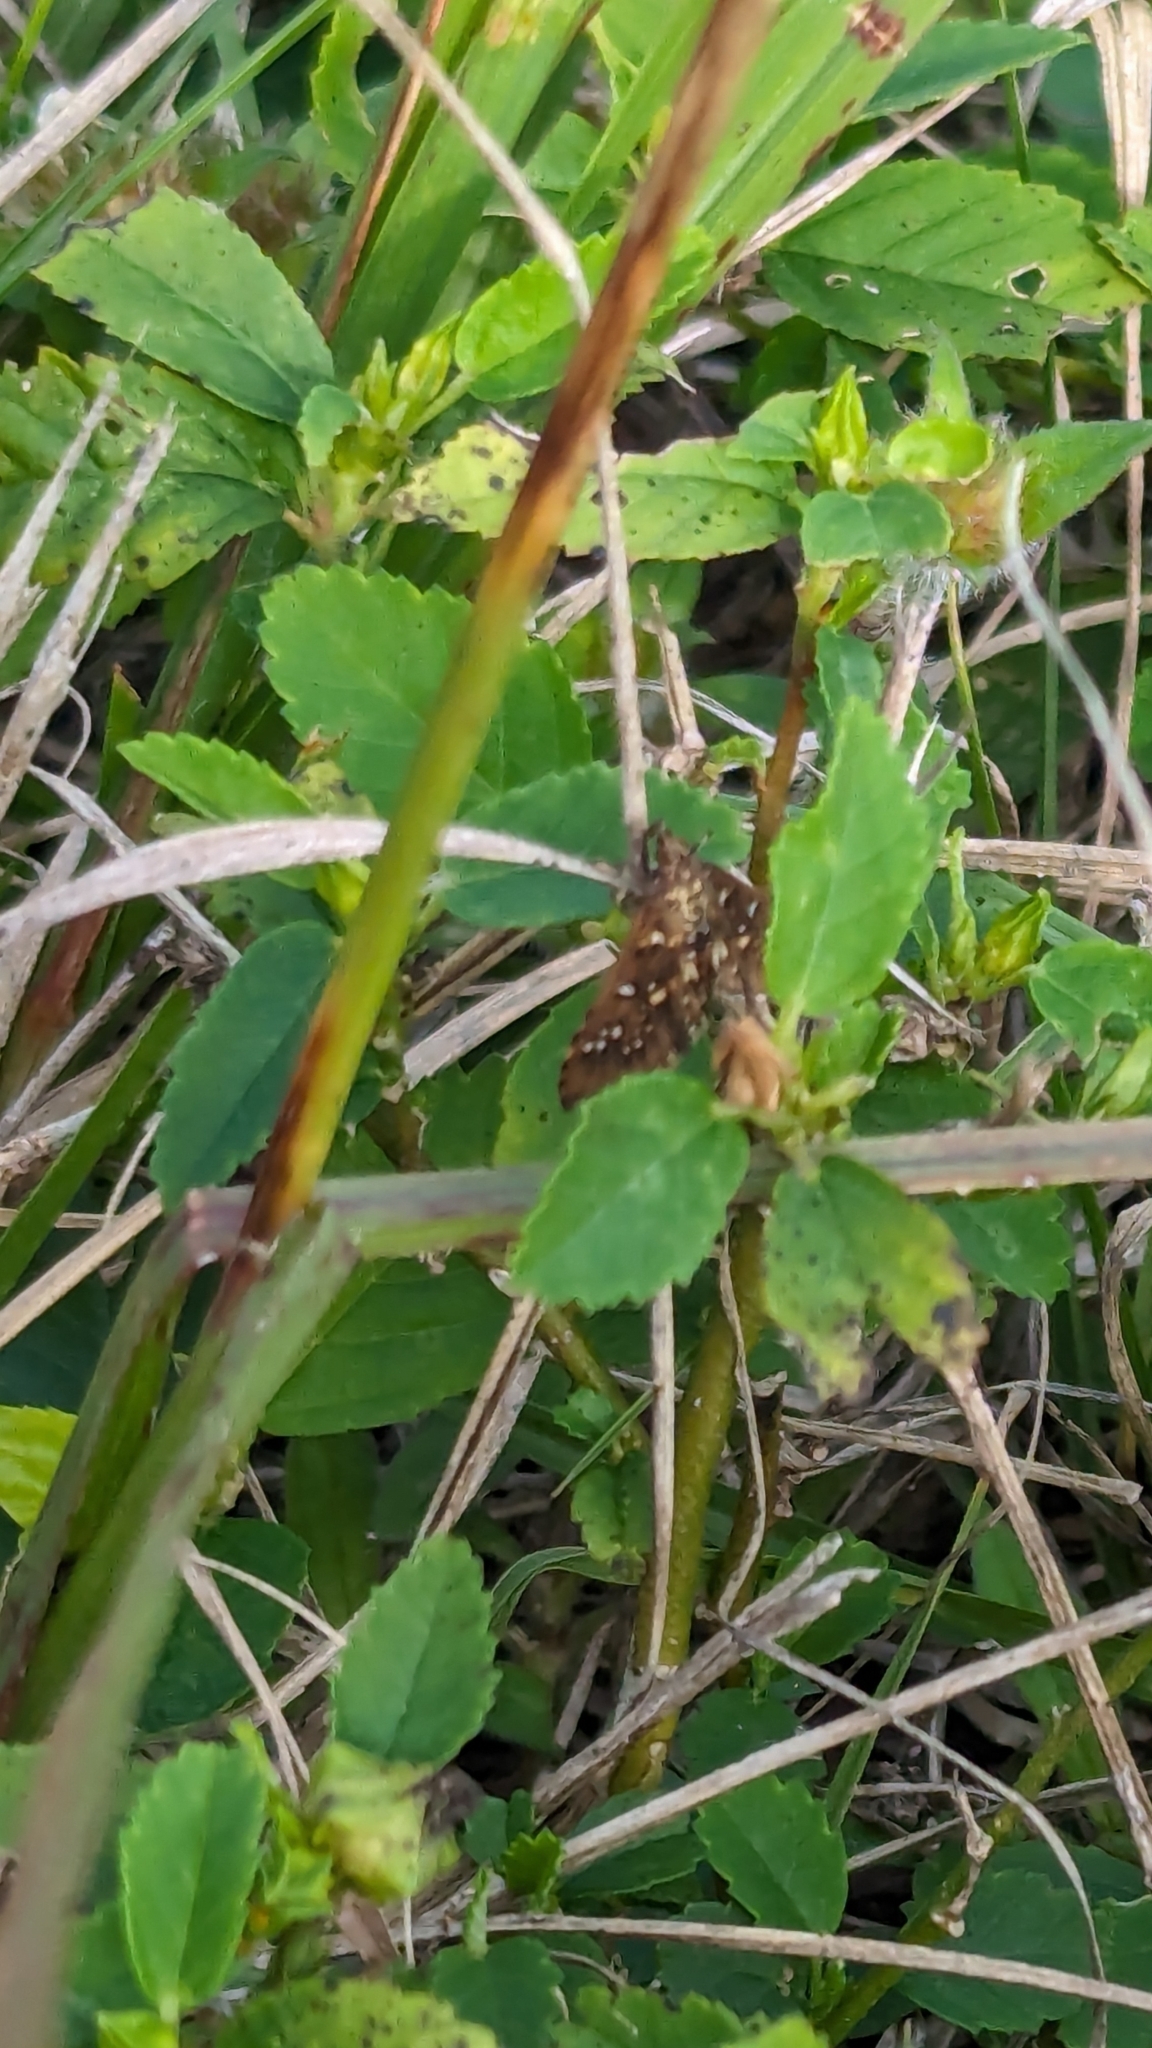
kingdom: Animalia
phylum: Arthropoda
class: Insecta
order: Lepidoptera
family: Crambidae
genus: Samea
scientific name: Samea ecclesialis
